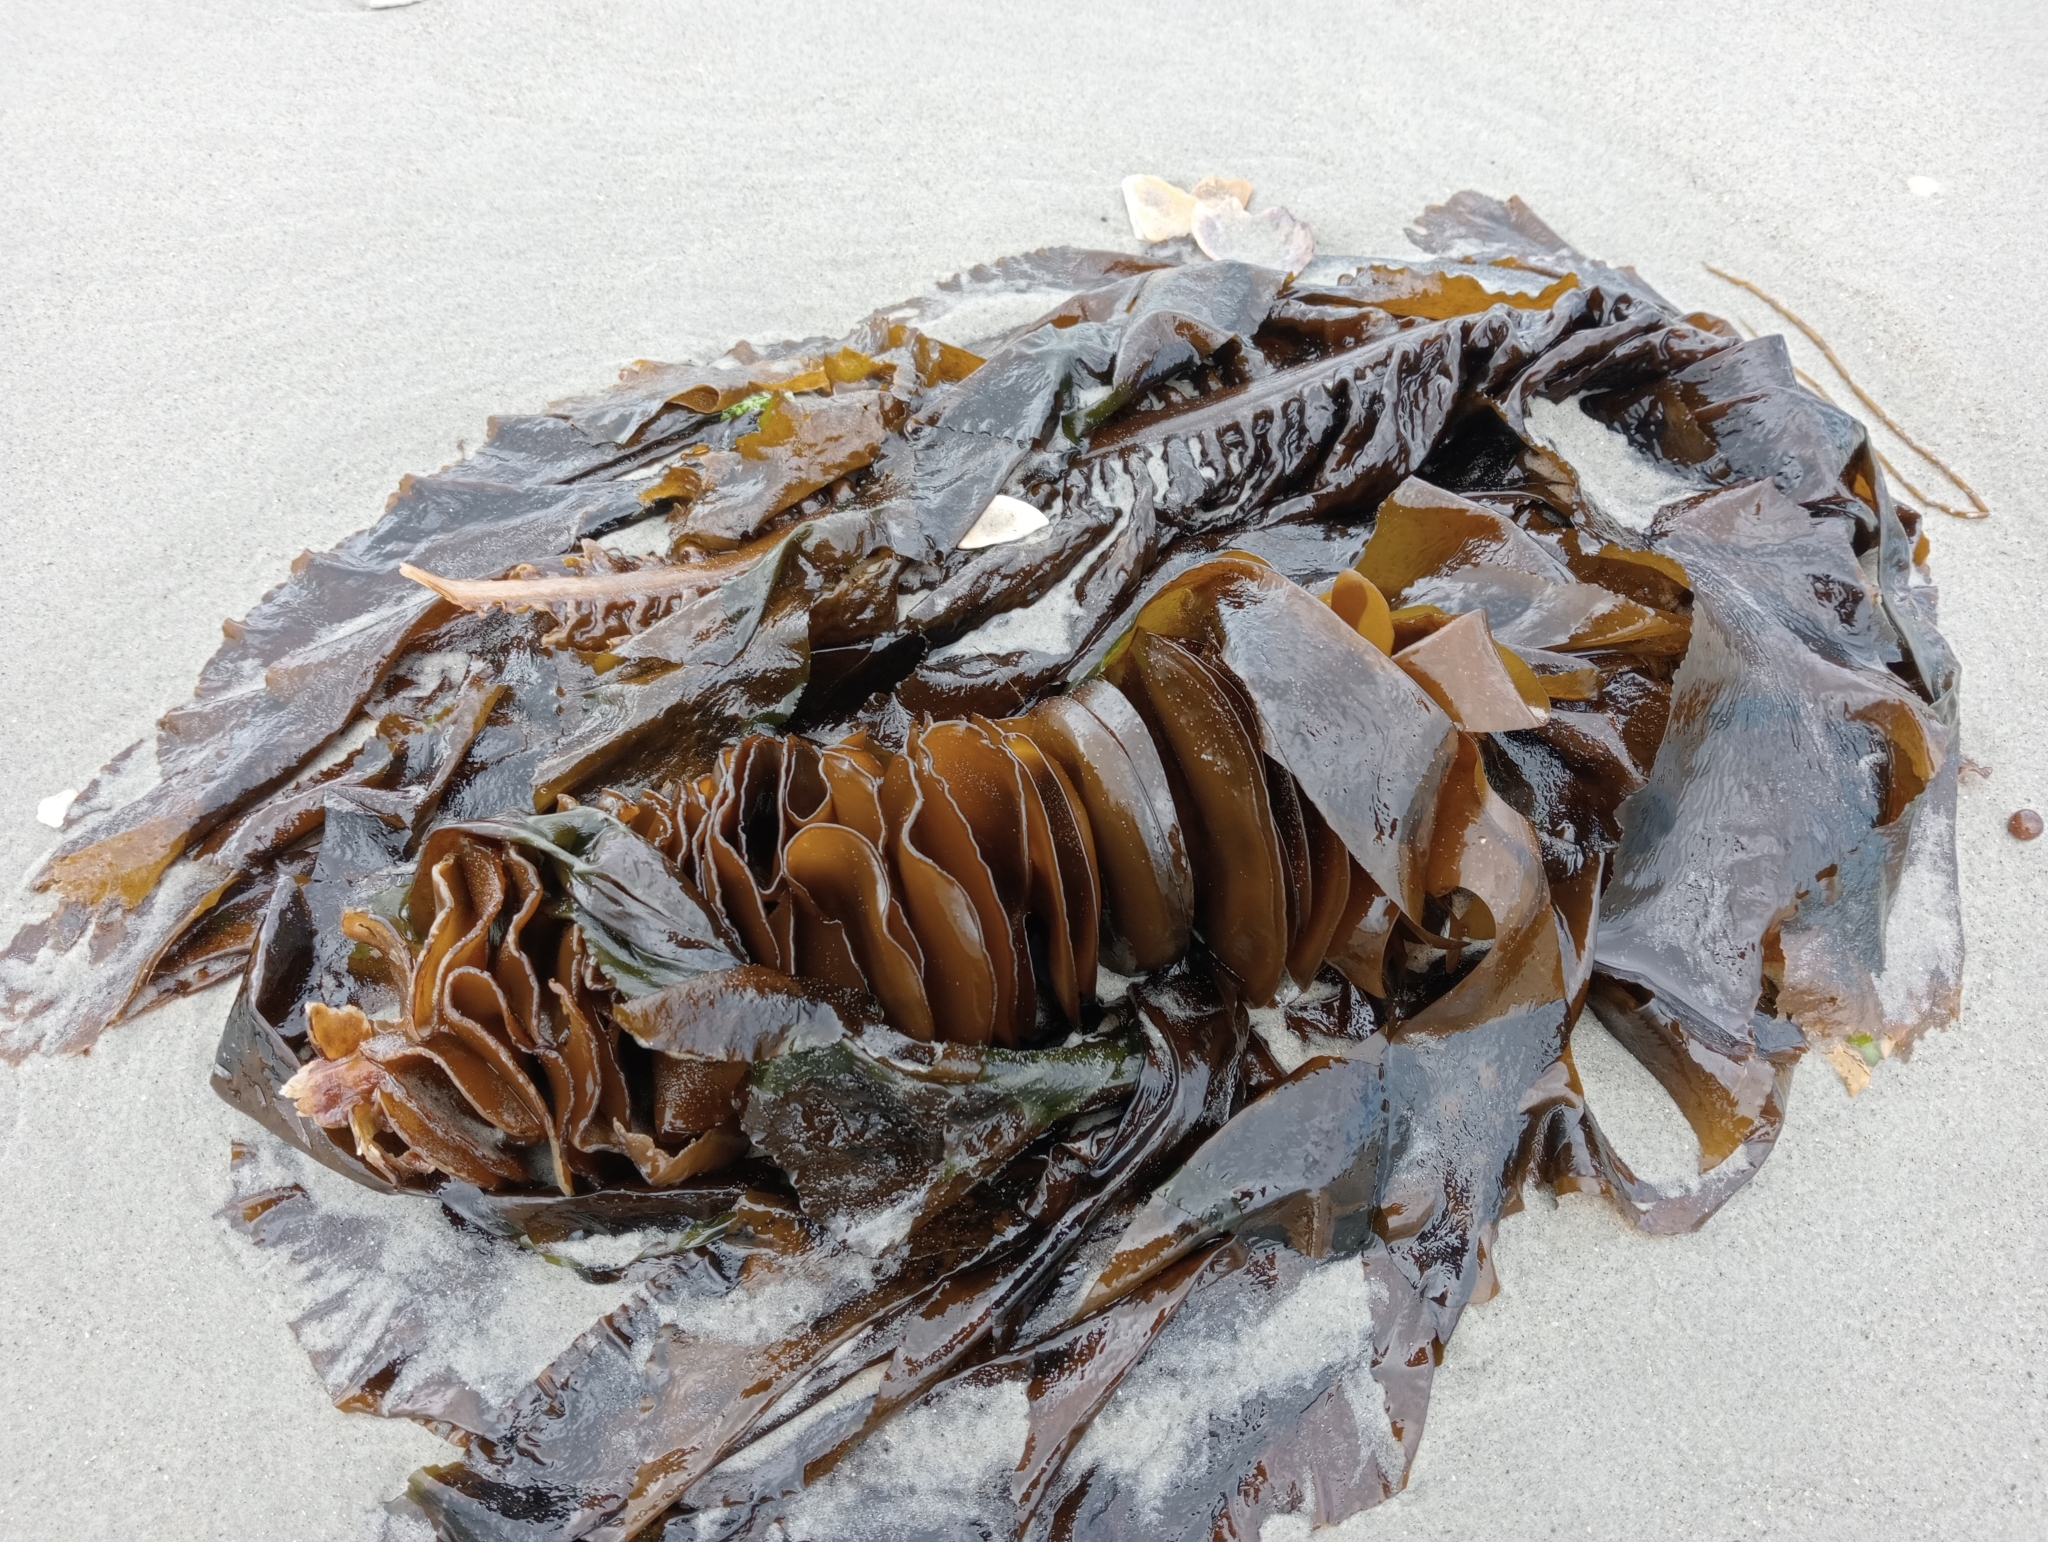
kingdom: Chromista
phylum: Ochrophyta
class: Phaeophyceae
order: Laminariales
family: Alariaceae
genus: Undaria
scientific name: Undaria pinnatifida
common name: Asian kelp
